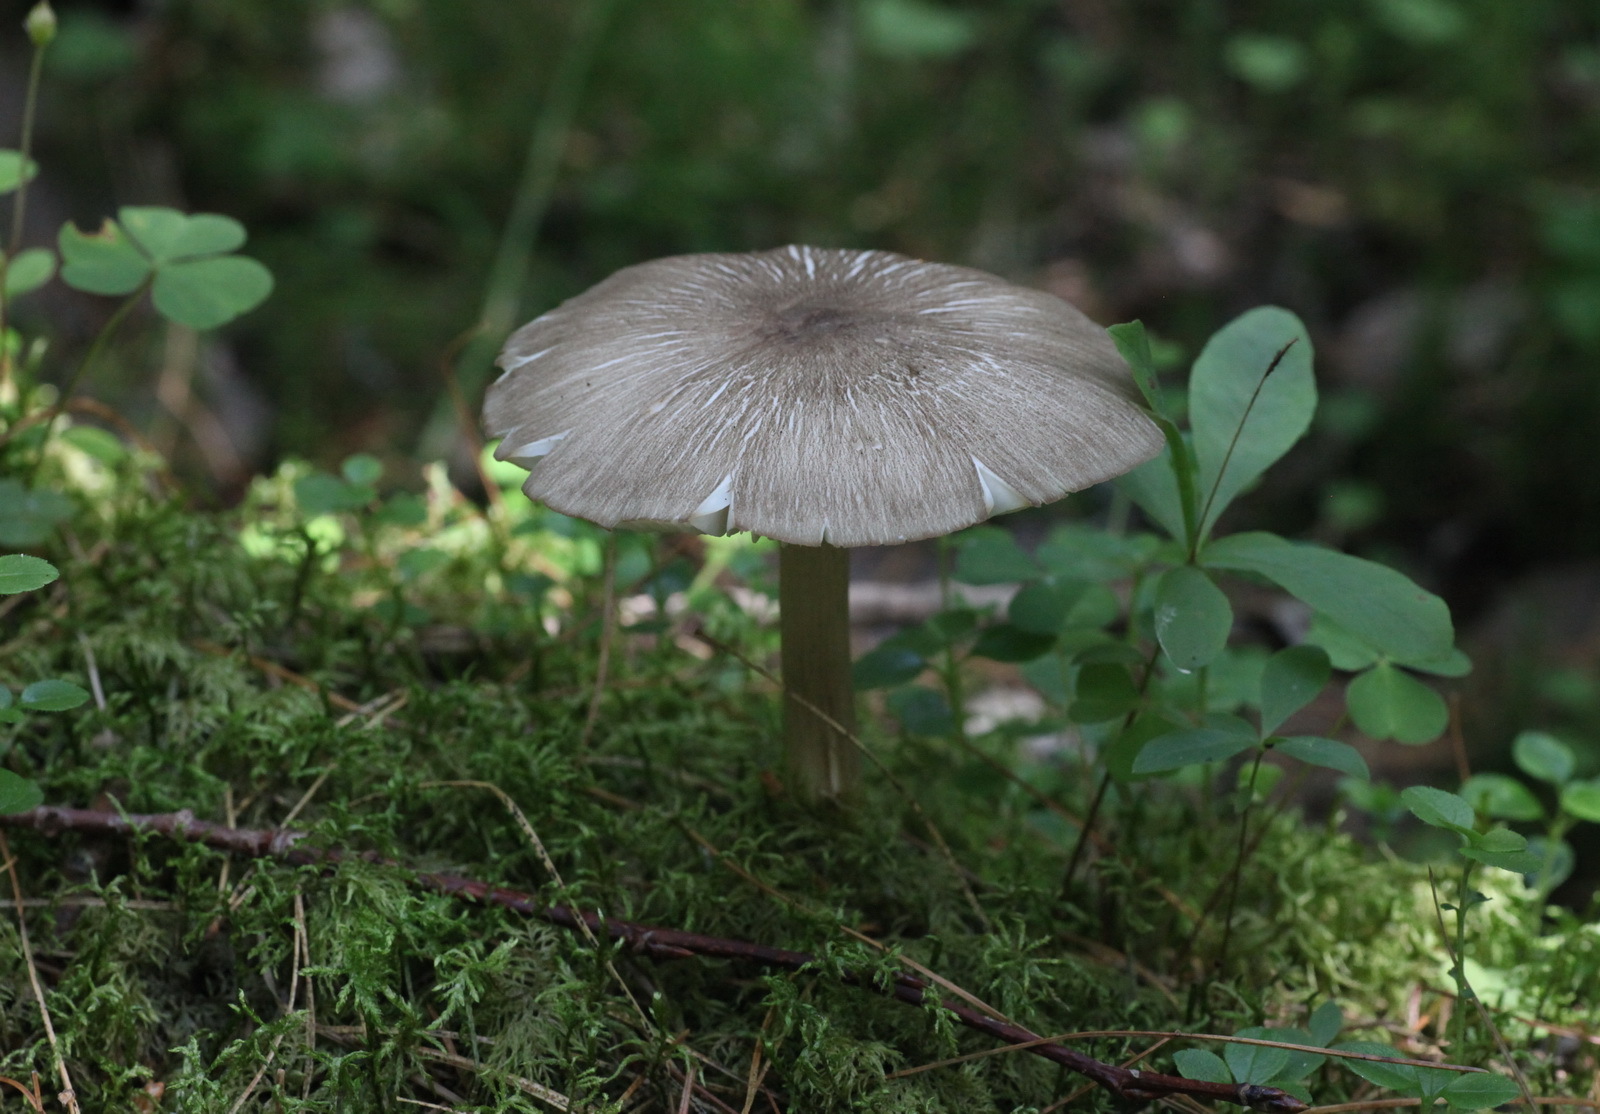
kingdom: Fungi
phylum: Basidiomycota
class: Agaricomycetes
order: Agaricales
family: Tricholomataceae
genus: Megacollybia
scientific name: Megacollybia platyphylla
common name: Whitelaced shank
